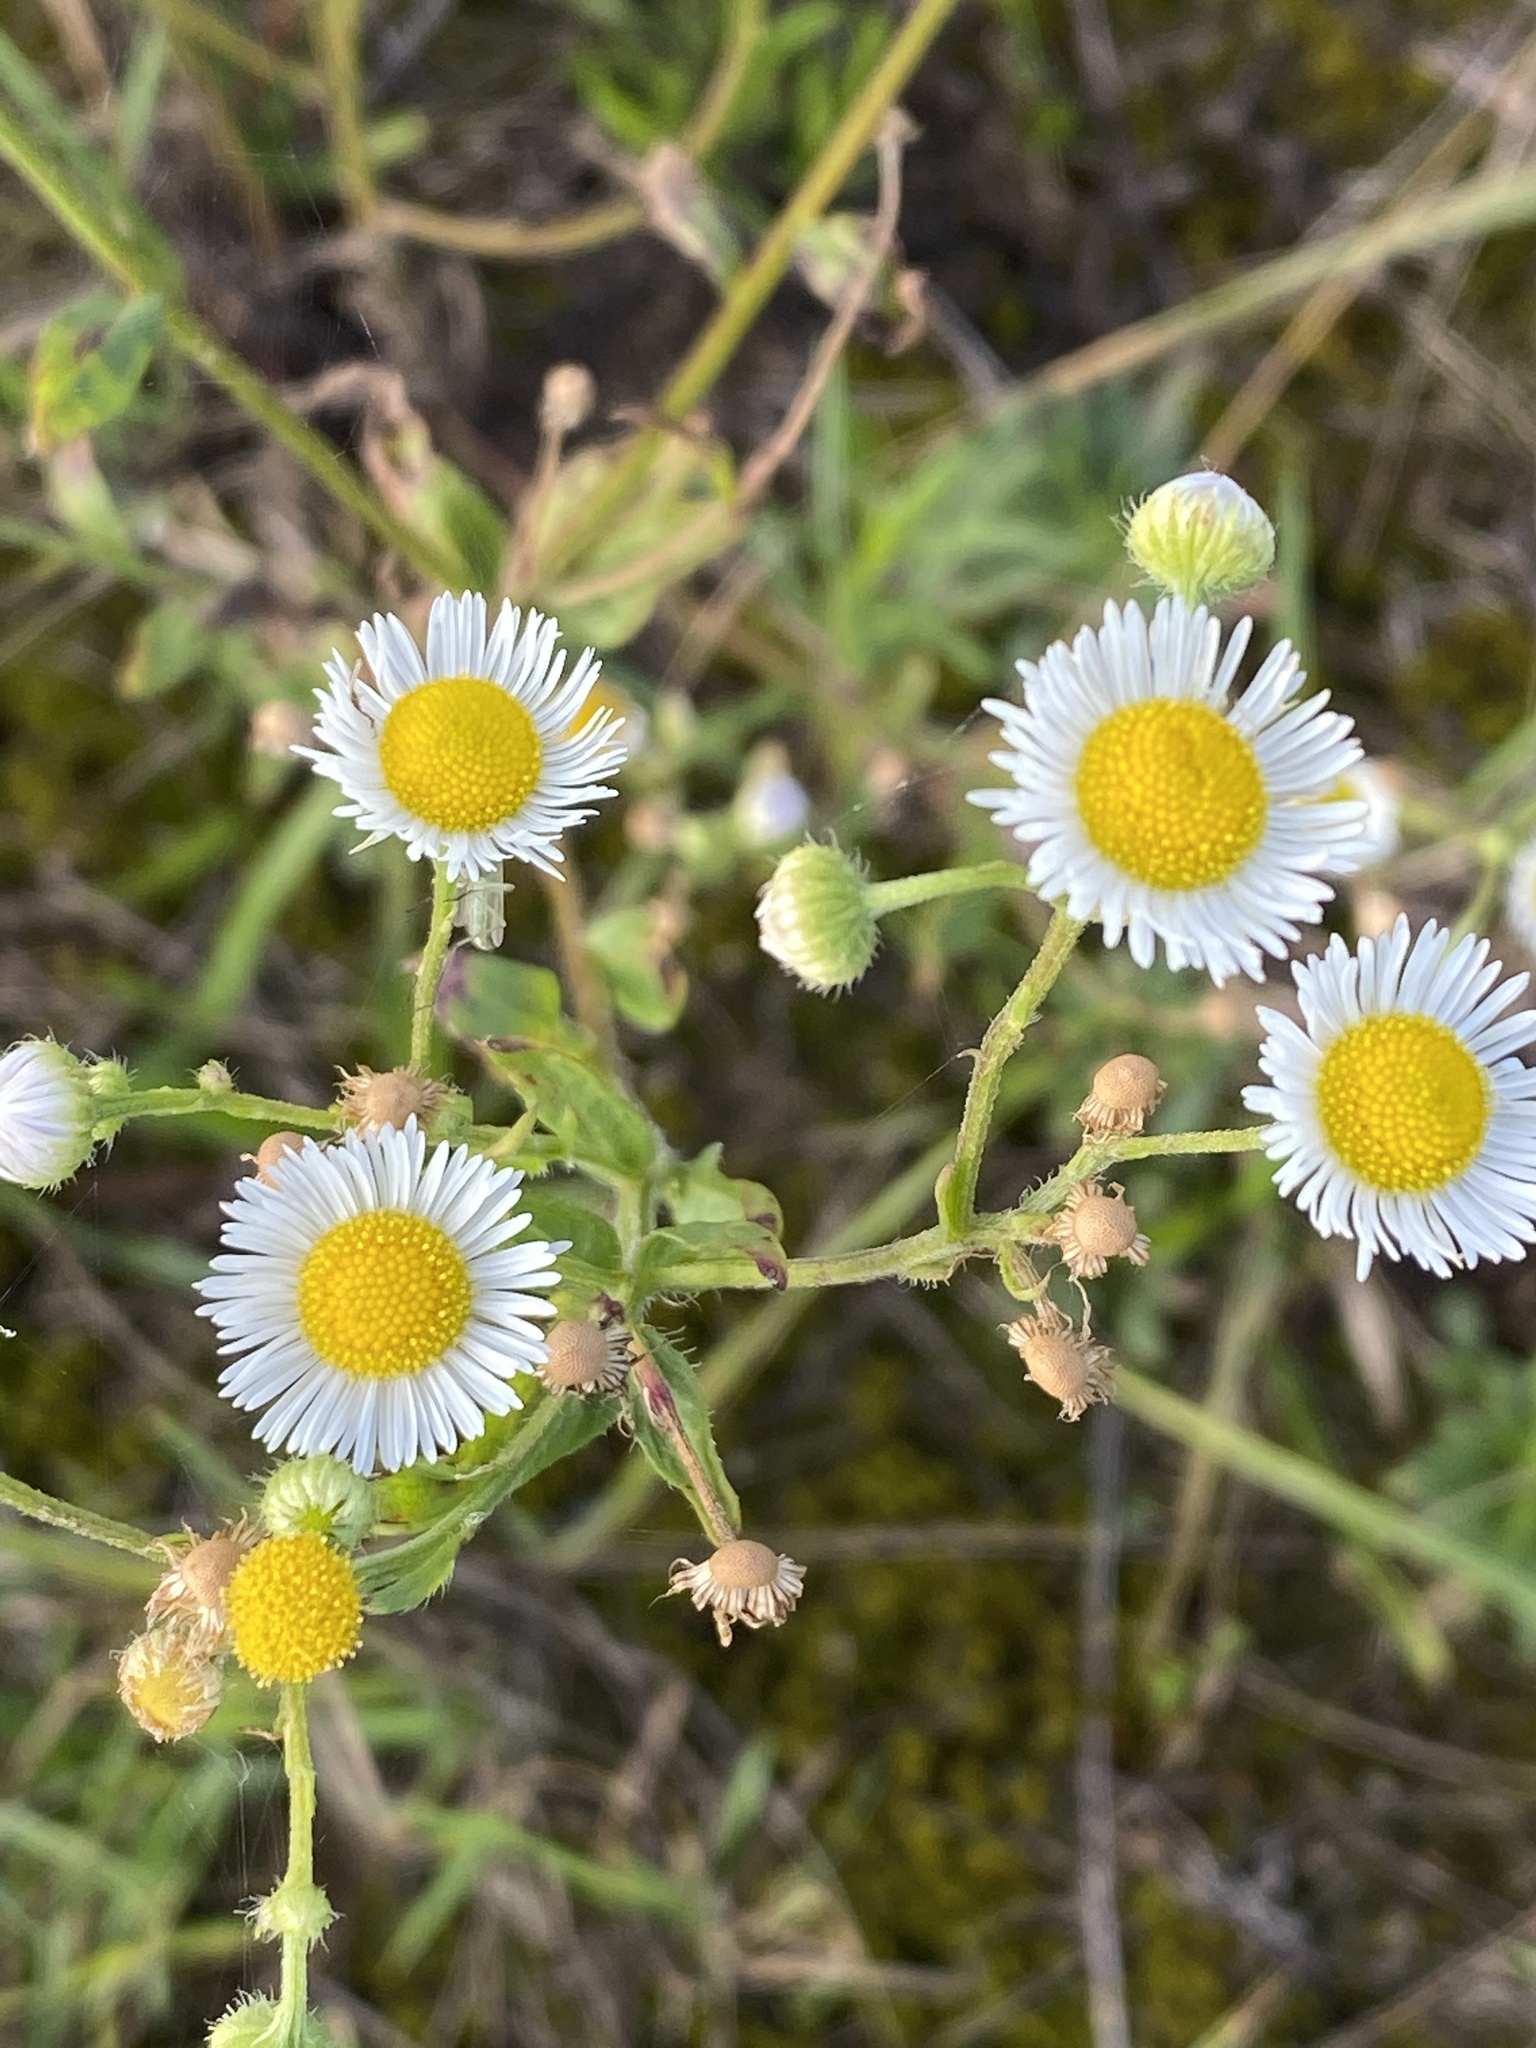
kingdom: Plantae
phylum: Tracheophyta
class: Magnoliopsida
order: Asterales
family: Asteraceae
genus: Erigeron
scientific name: Erigeron annuus
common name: Tall fleabane
